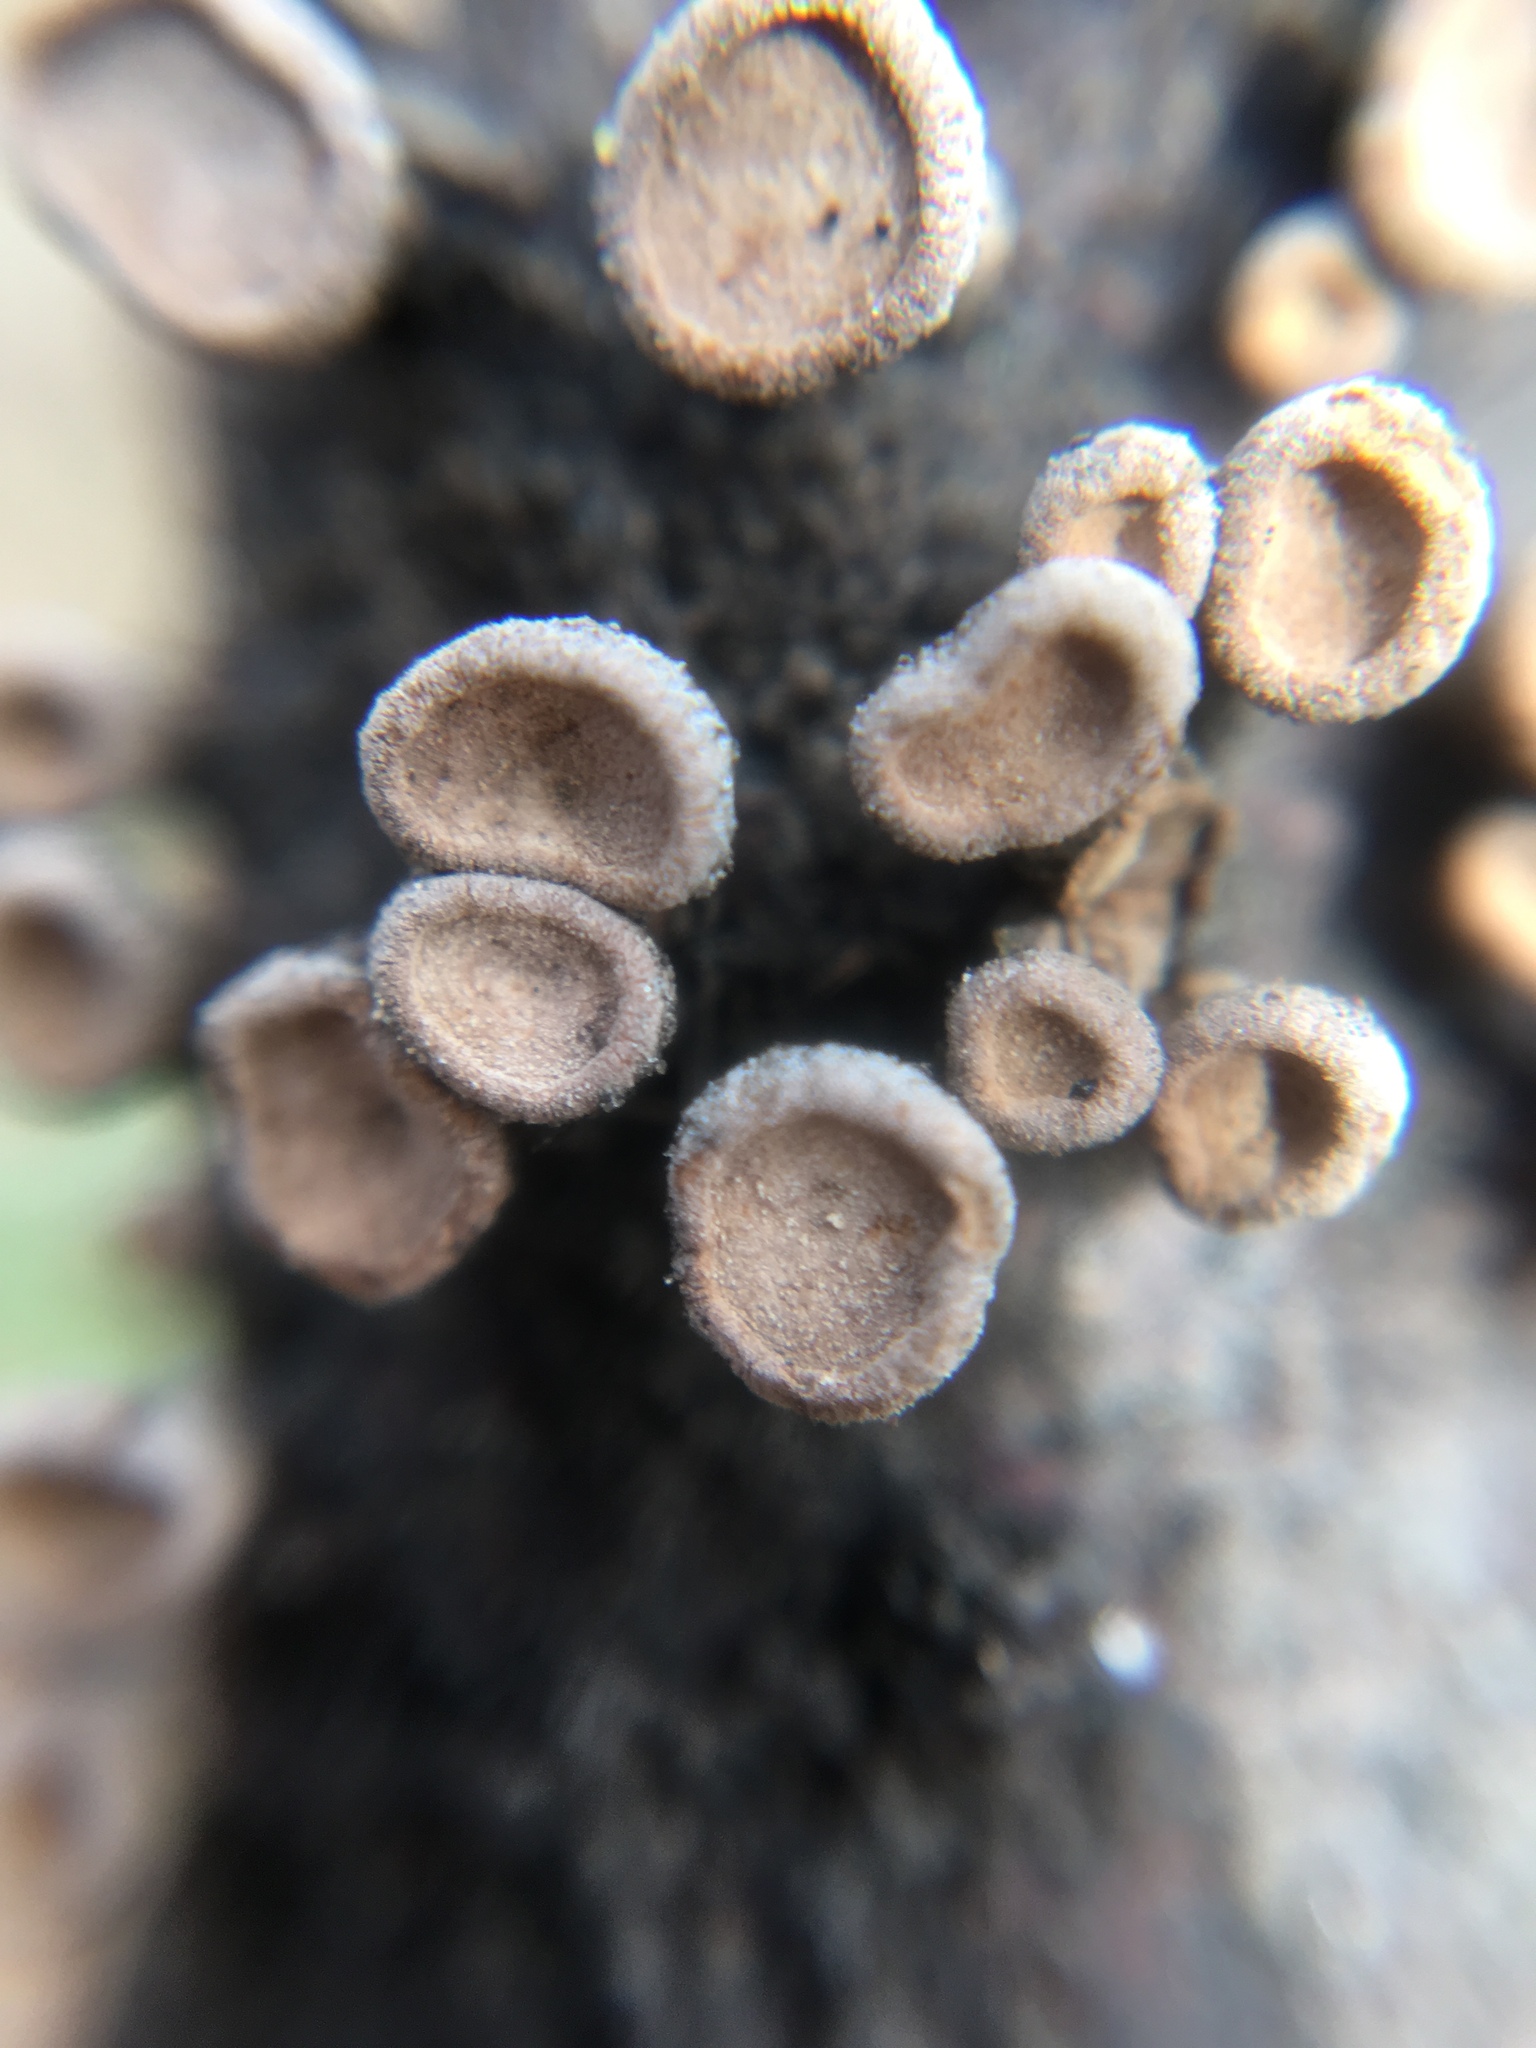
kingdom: Fungi
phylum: Basidiomycota
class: Agaricomycetes
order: Agaricales
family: Schizophyllaceae
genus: Porodisculus
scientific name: Porodisculus pendulus
